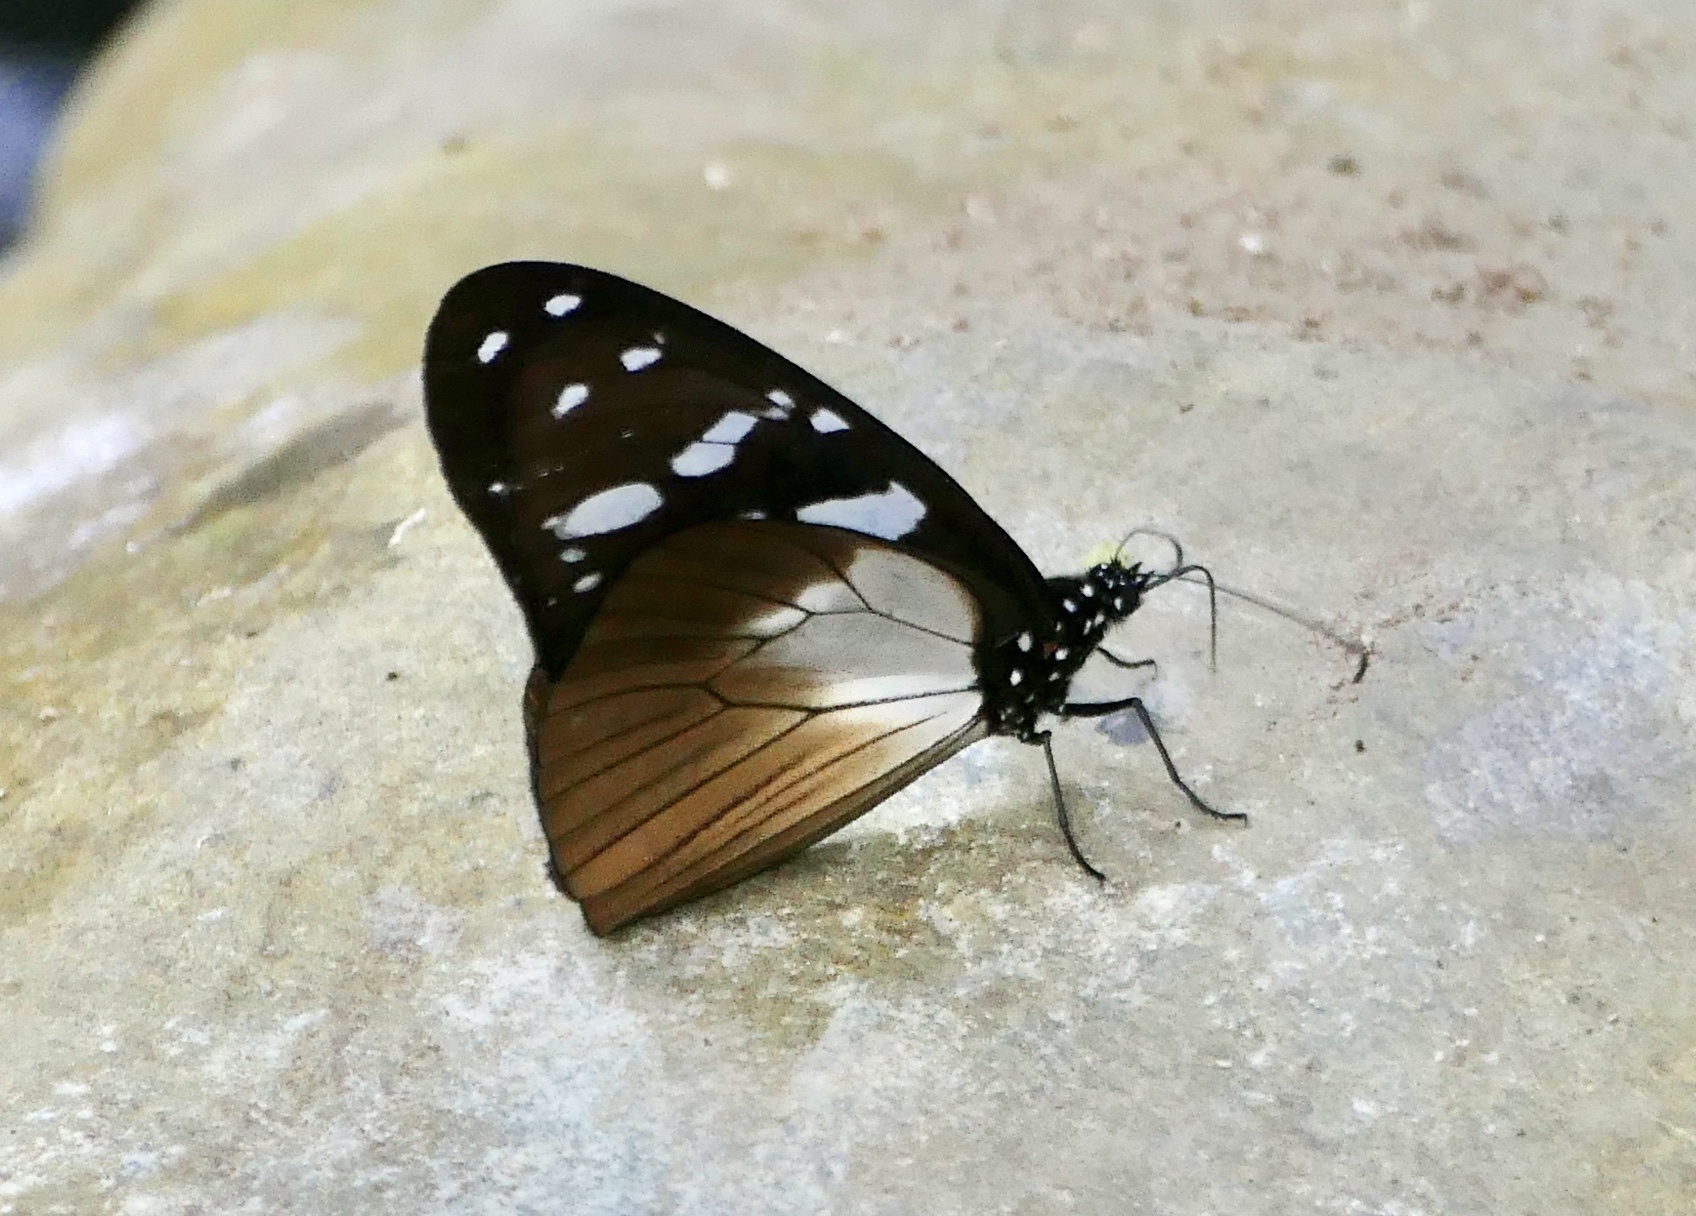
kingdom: Animalia
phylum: Arthropoda
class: Insecta
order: Lepidoptera
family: Nymphalidae
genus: Amauris
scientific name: Amauris tartarea
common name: Monk
